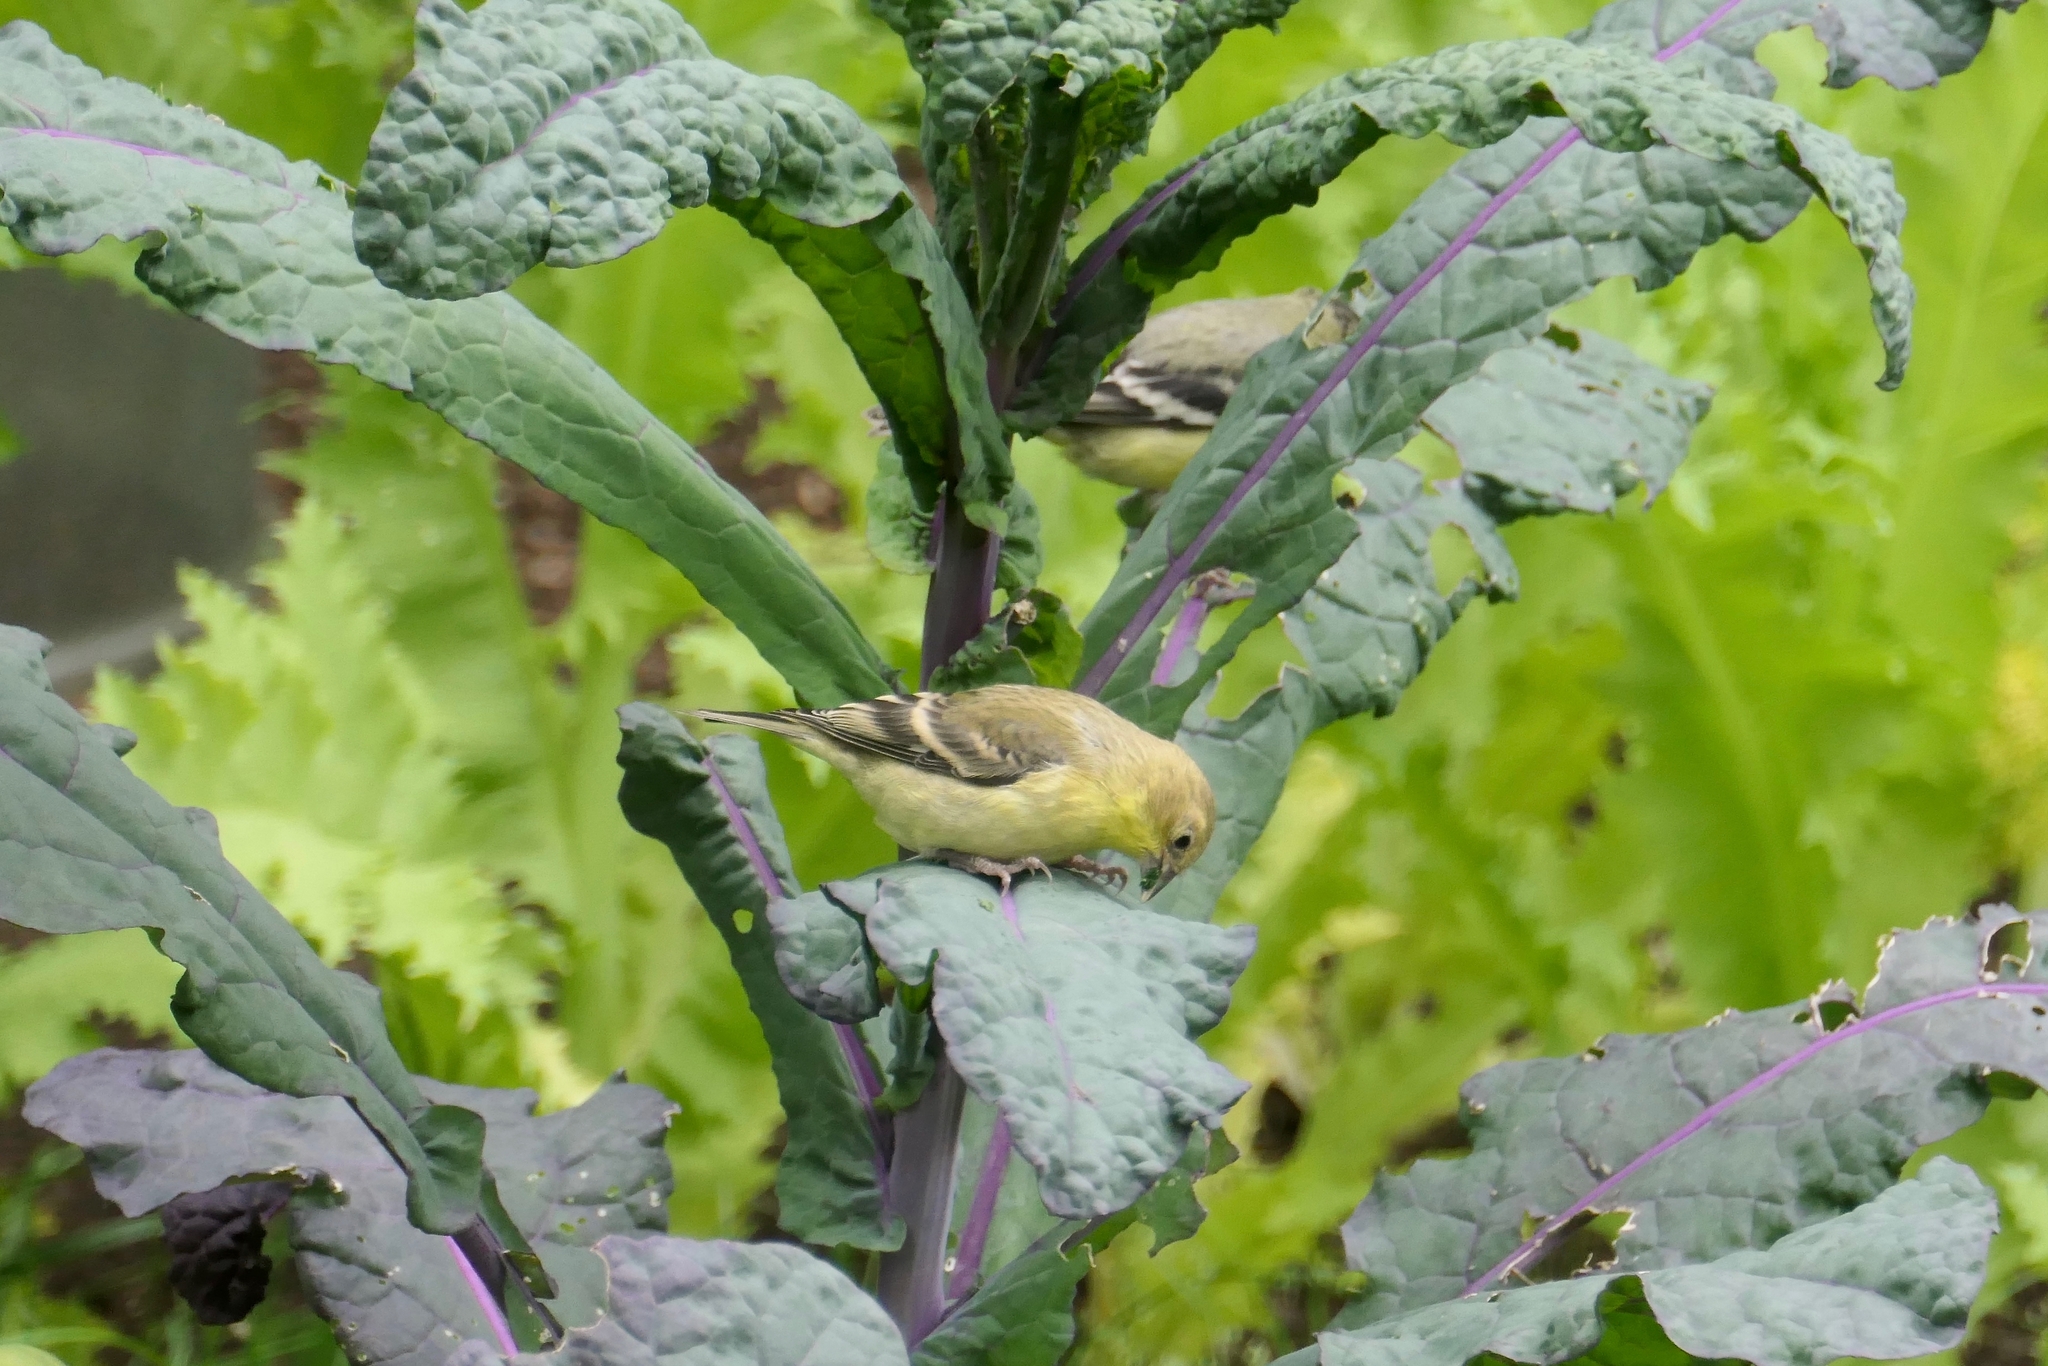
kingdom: Animalia
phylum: Chordata
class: Aves
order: Passeriformes
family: Fringillidae
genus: Spinus
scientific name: Spinus psaltria
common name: Lesser goldfinch
